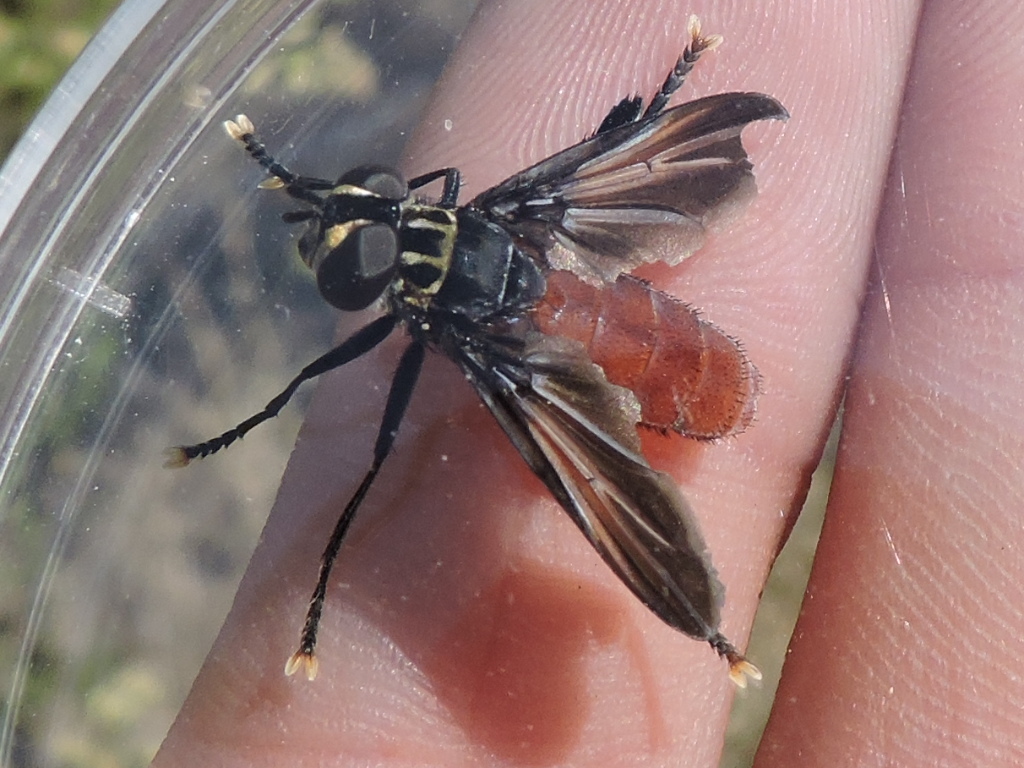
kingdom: Animalia
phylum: Arthropoda
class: Insecta
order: Diptera
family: Tachinidae
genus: Trichopoda
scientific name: Trichopoda pennipes
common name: Tachinid fly
